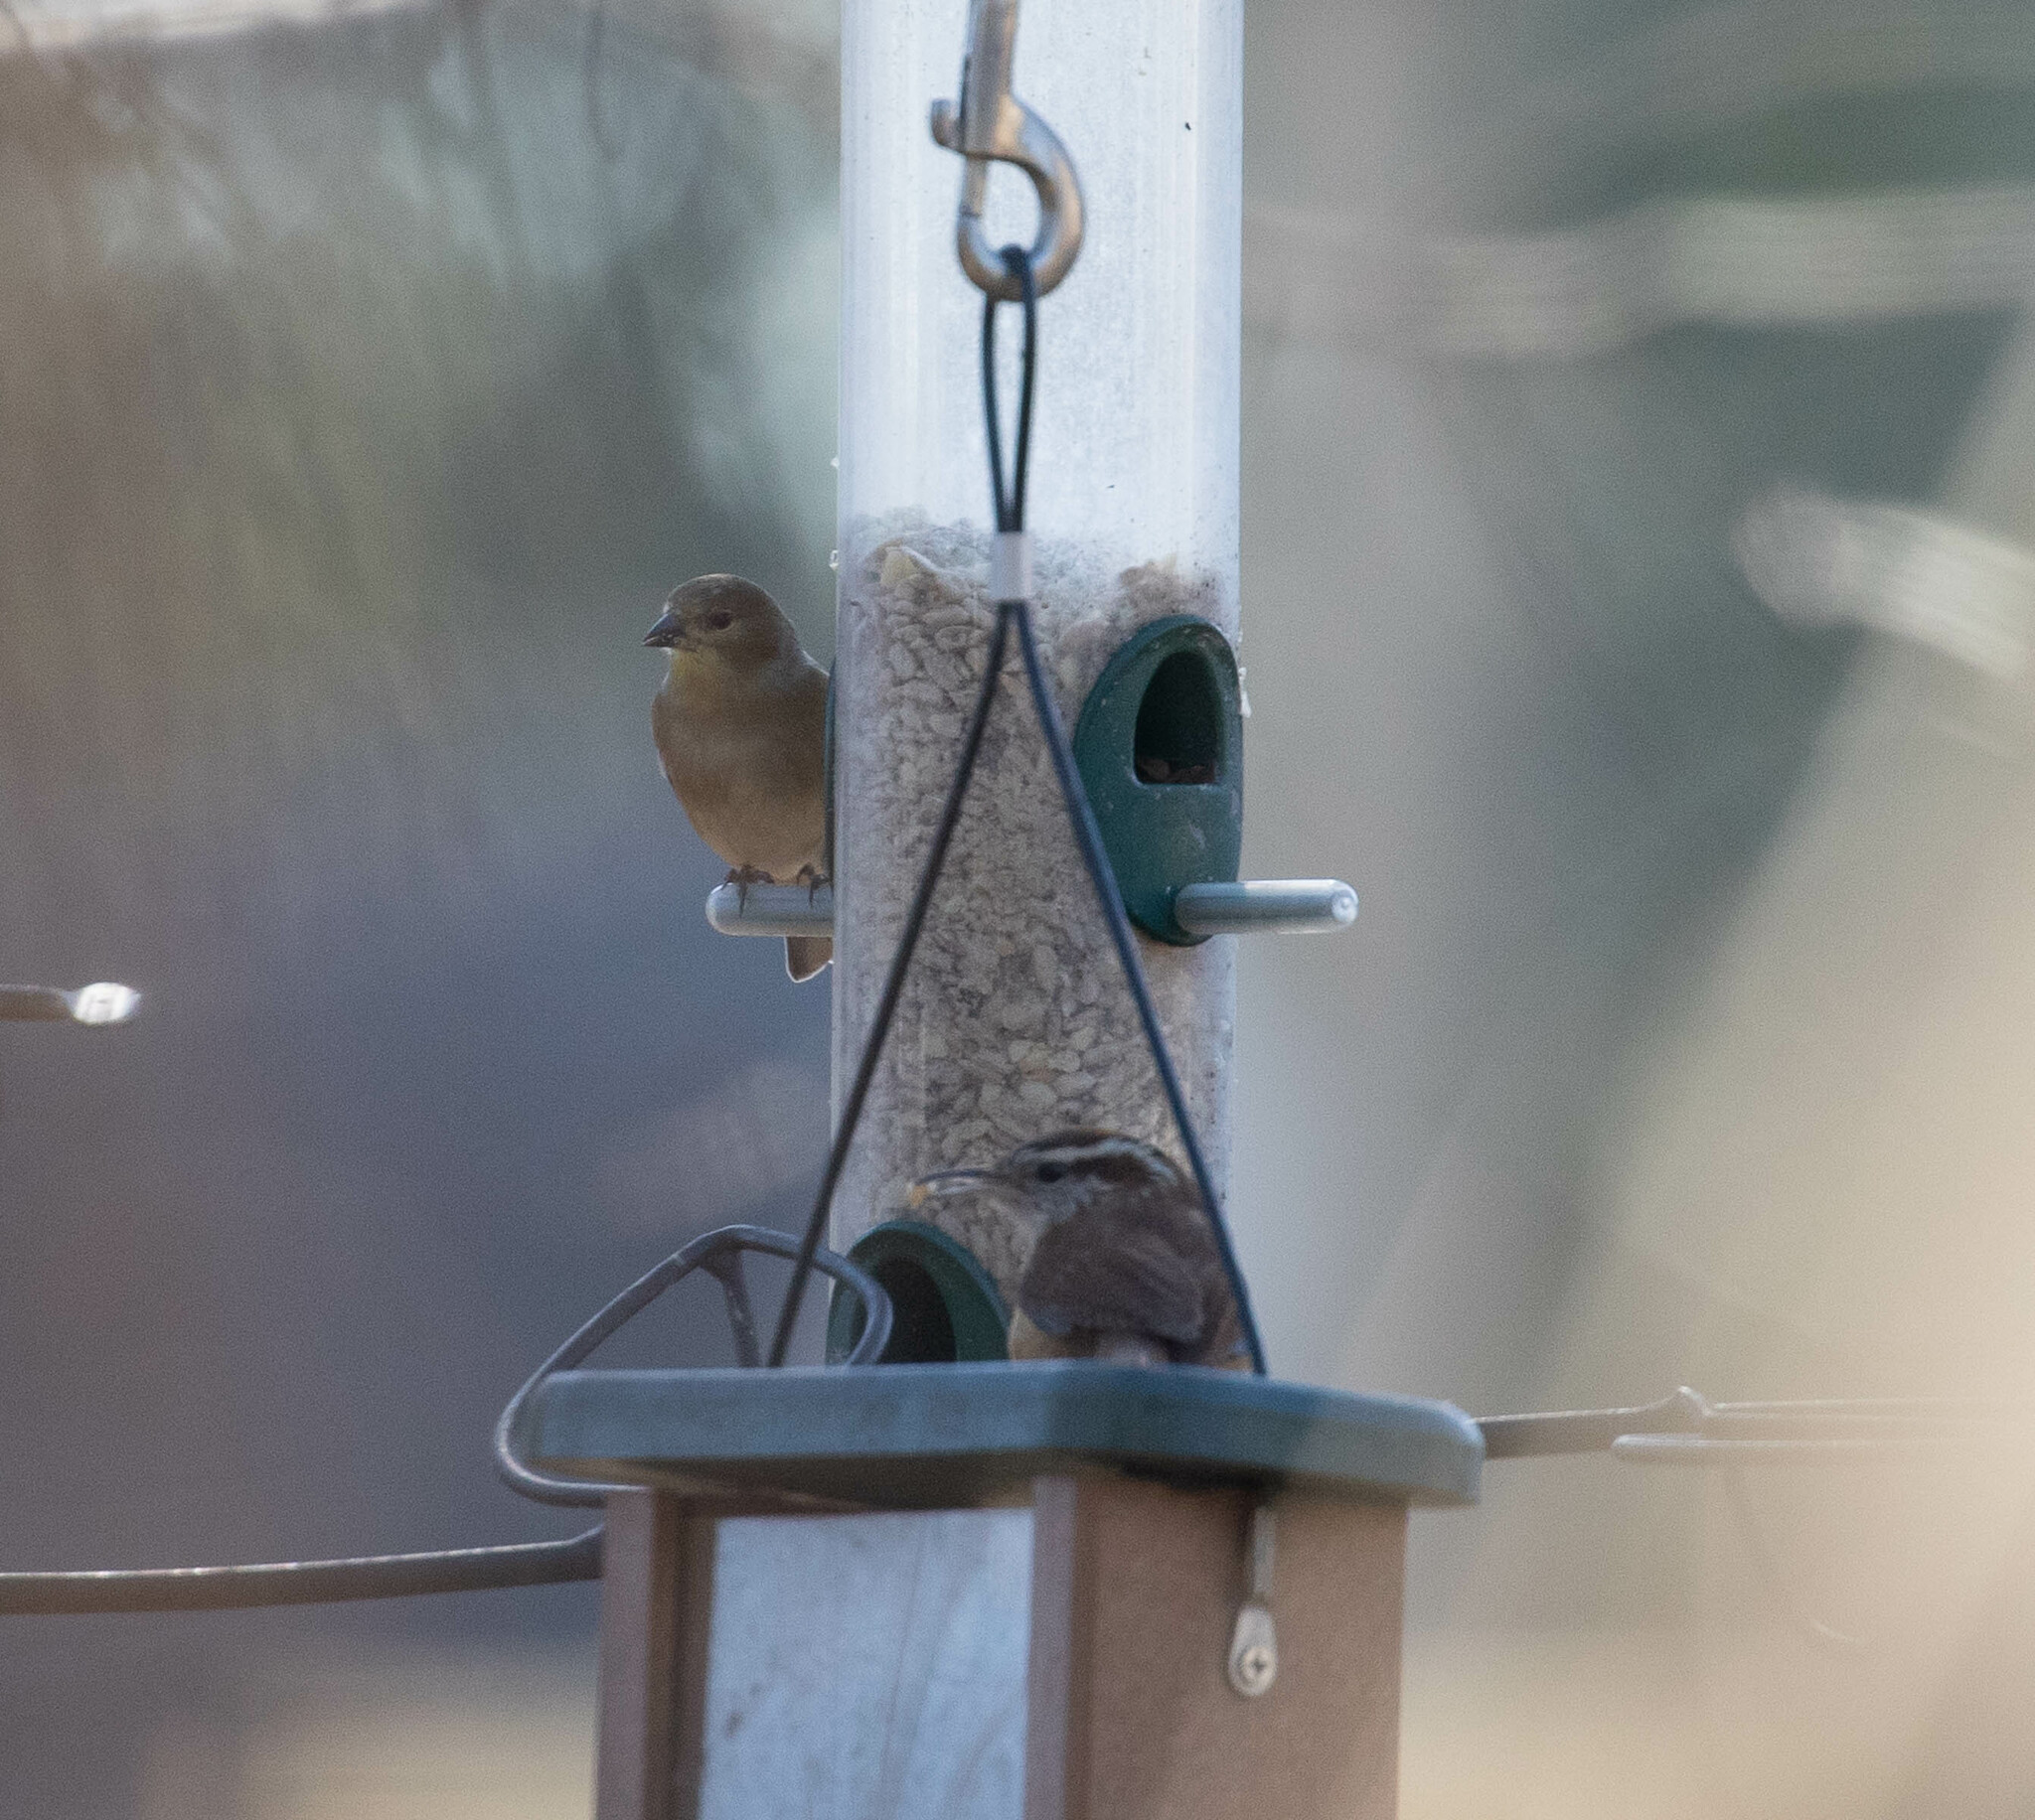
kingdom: Animalia
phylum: Chordata
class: Aves
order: Passeriformes
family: Fringillidae
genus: Spinus
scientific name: Spinus tristis
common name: American goldfinch
